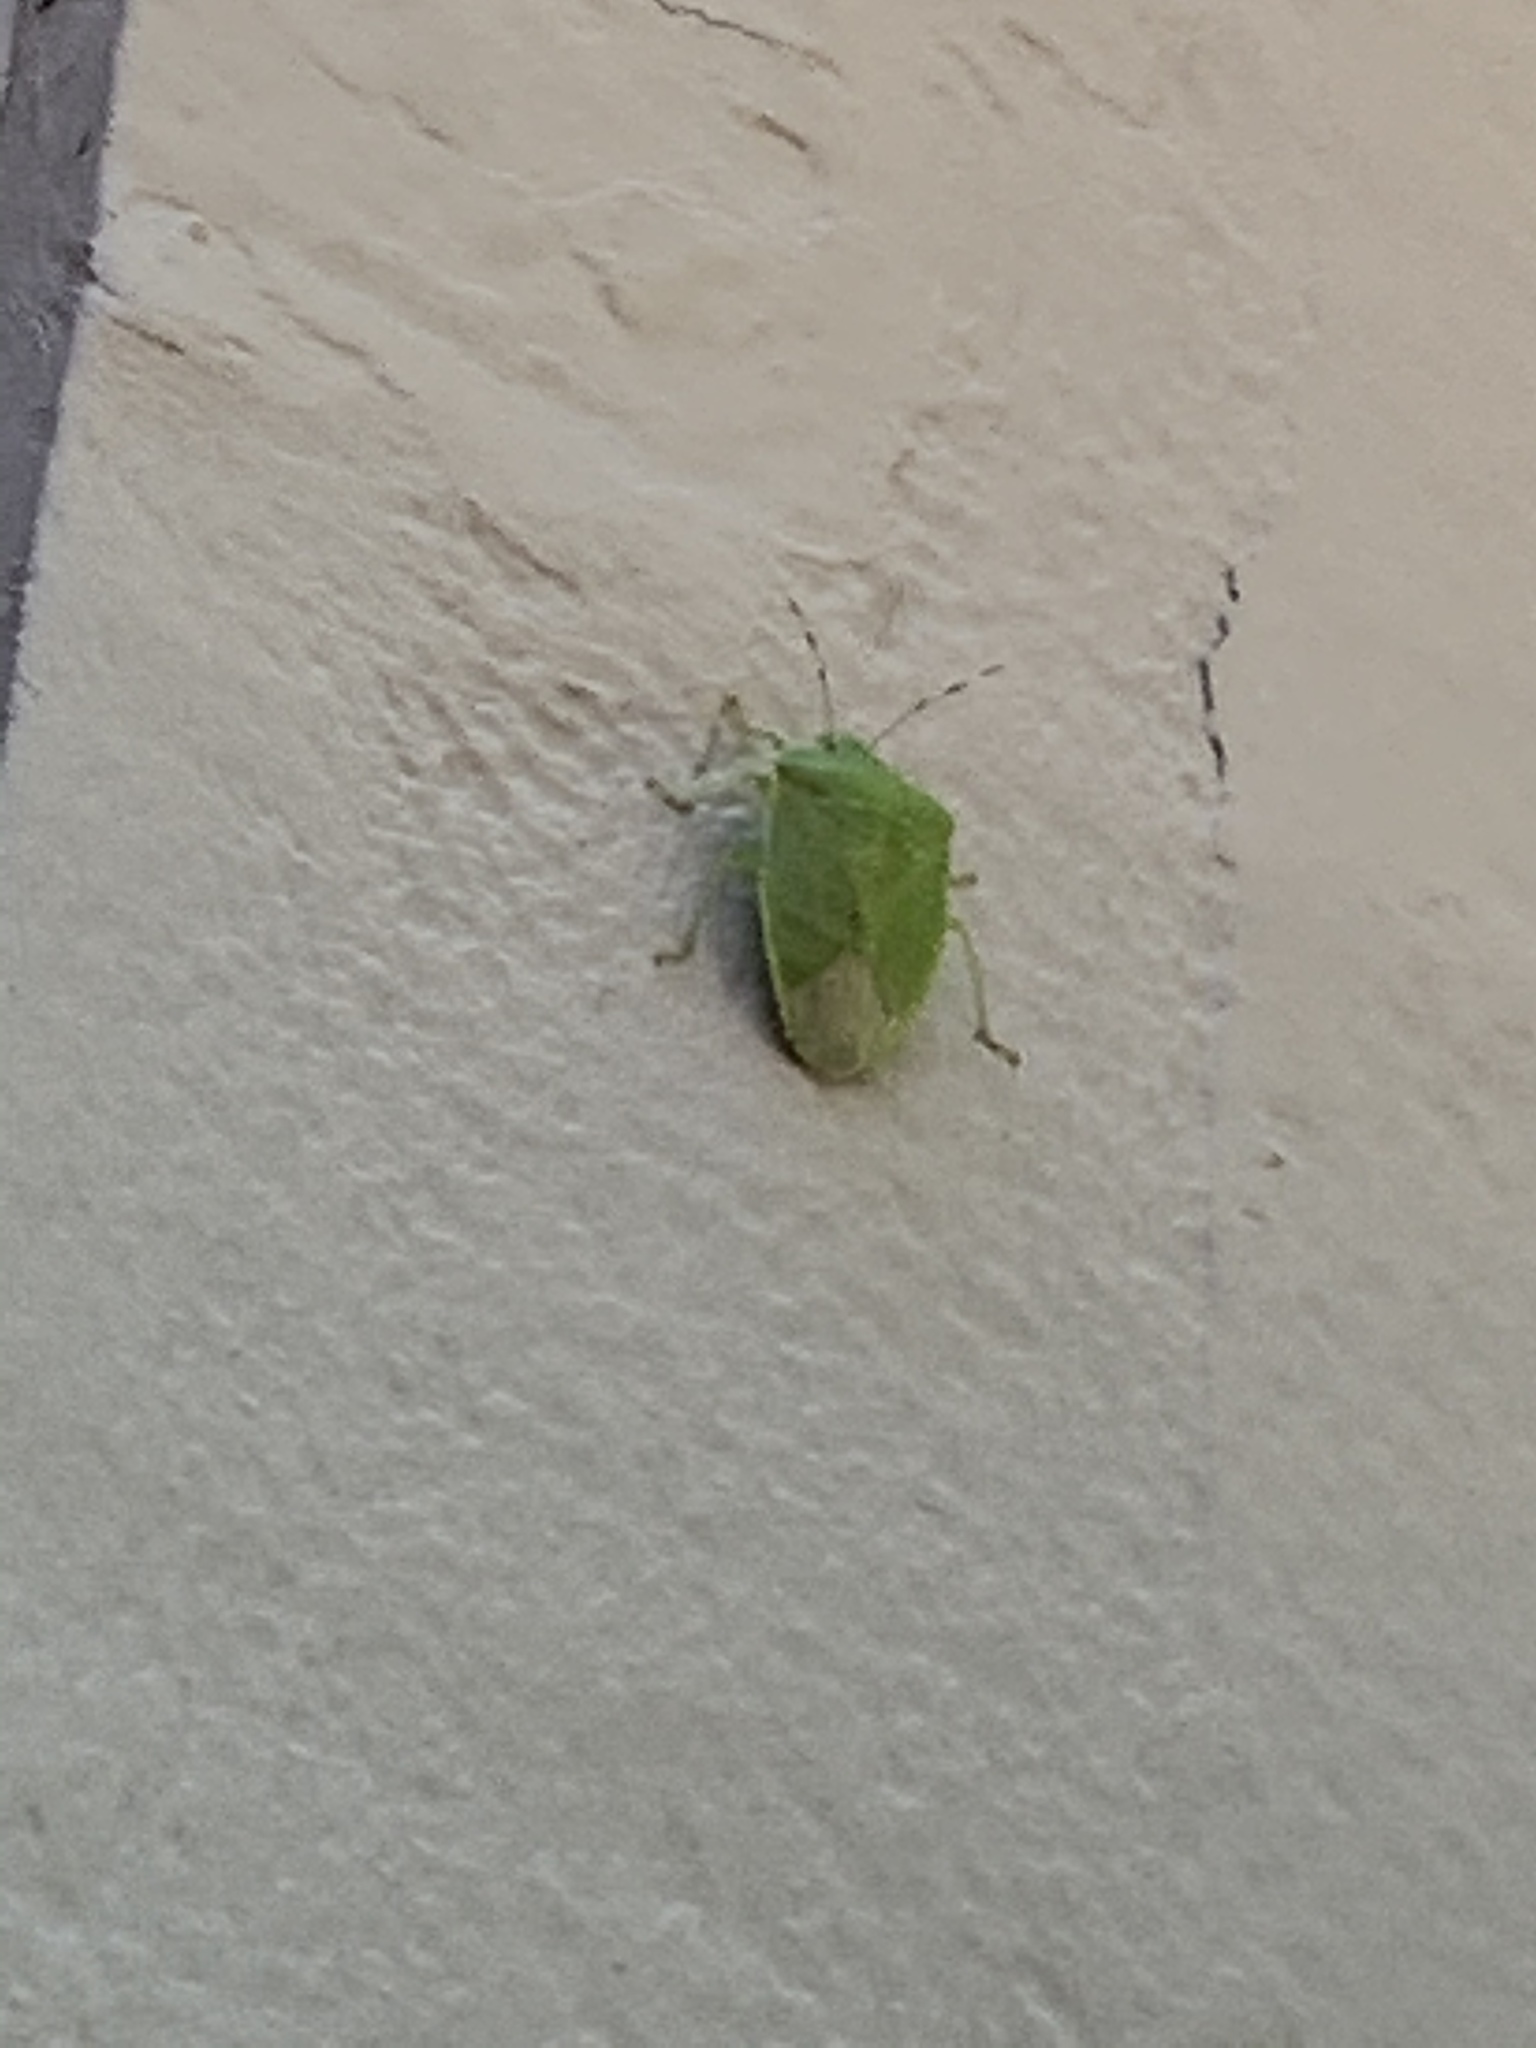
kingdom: Animalia
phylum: Arthropoda
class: Insecta
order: Hemiptera
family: Pentatomidae
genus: Chinavia
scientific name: Chinavia hilaris
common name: Green stink bug
